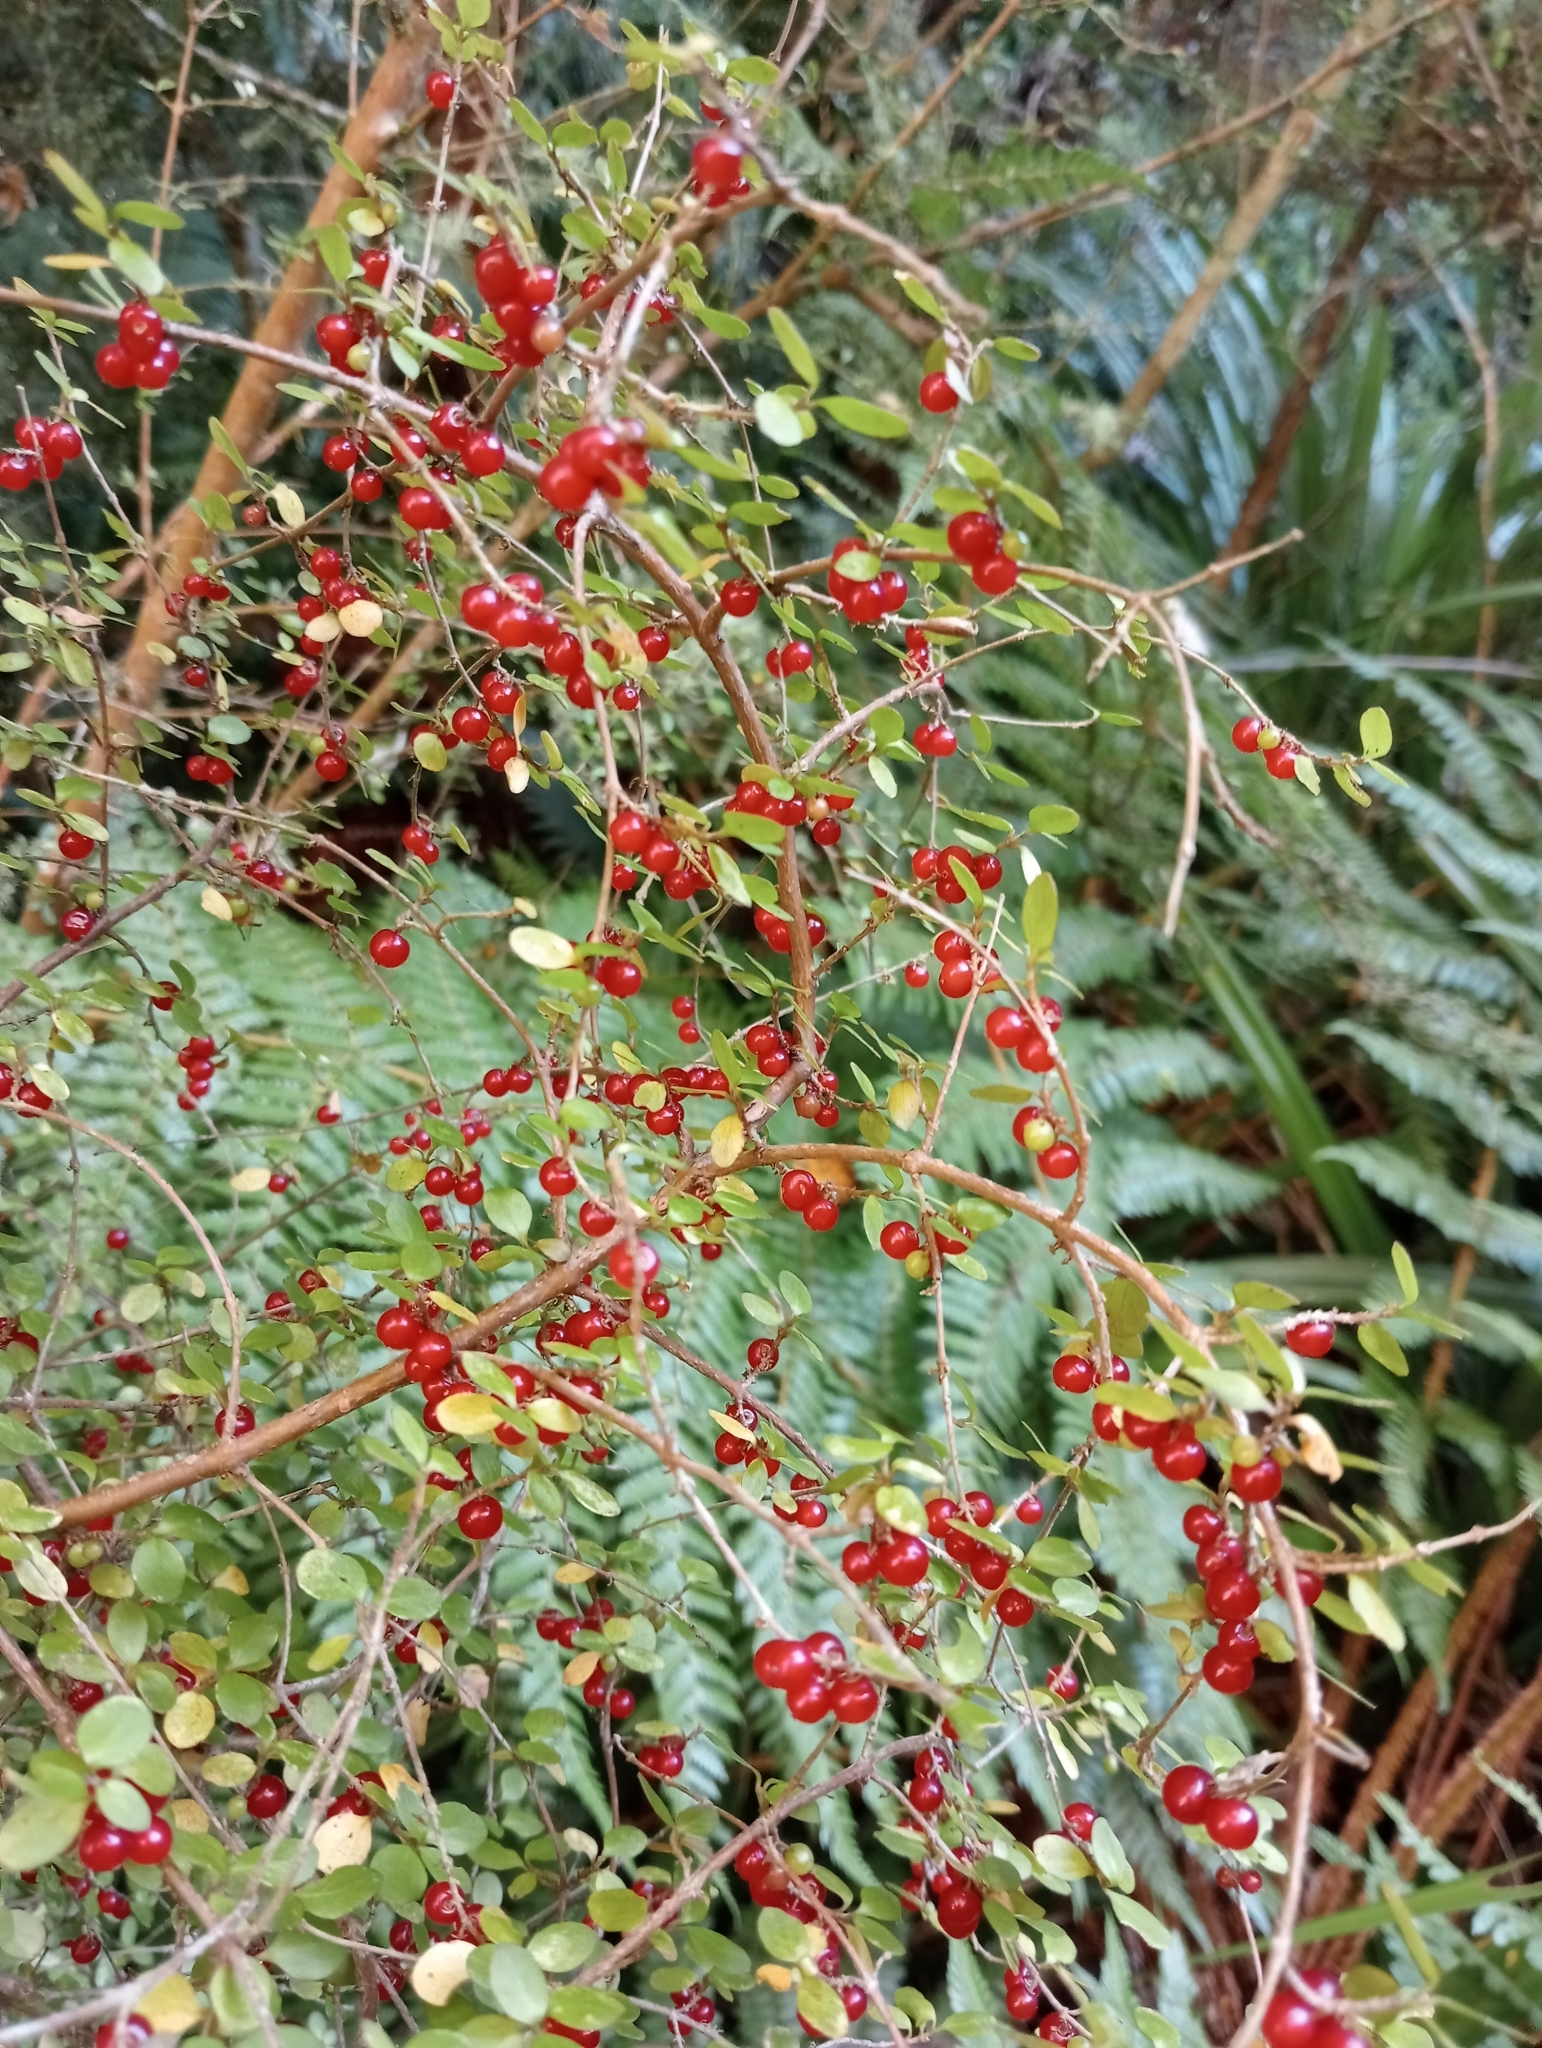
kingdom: Plantae
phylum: Tracheophyta
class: Magnoliopsida
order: Gentianales
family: Rubiaceae
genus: Coprosma
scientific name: Coprosma rhamnoides
